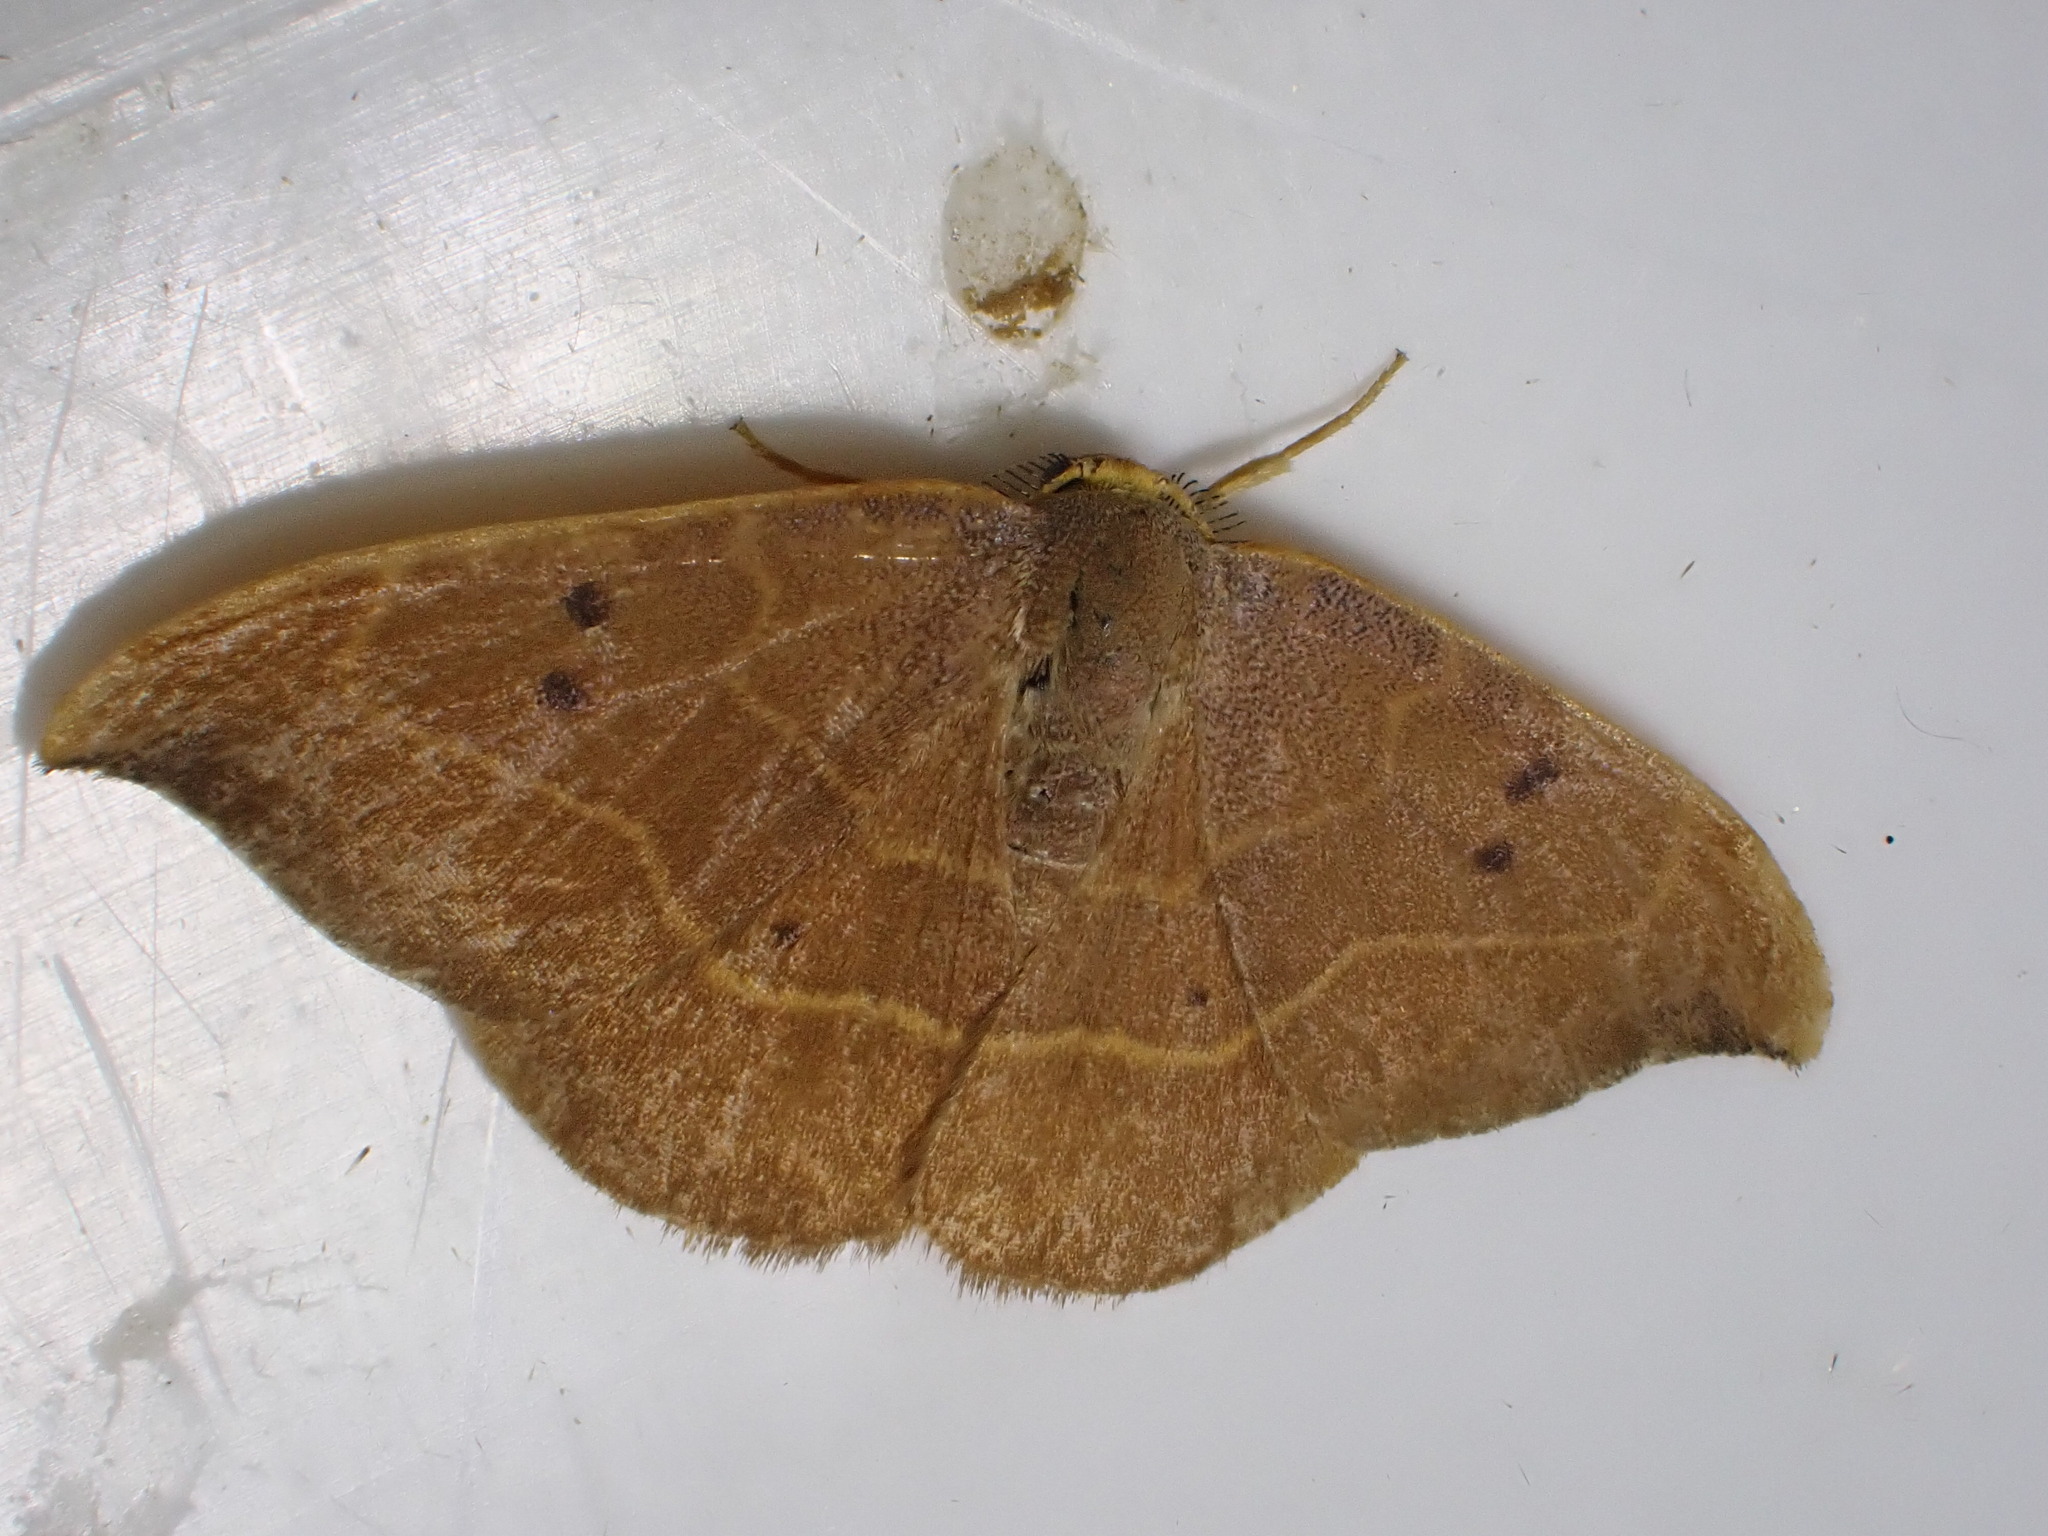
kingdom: Animalia
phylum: Arthropoda
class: Insecta
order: Lepidoptera
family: Drepanidae
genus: Watsonalla
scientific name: Watsonalla binaria
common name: Oak hook-tip
